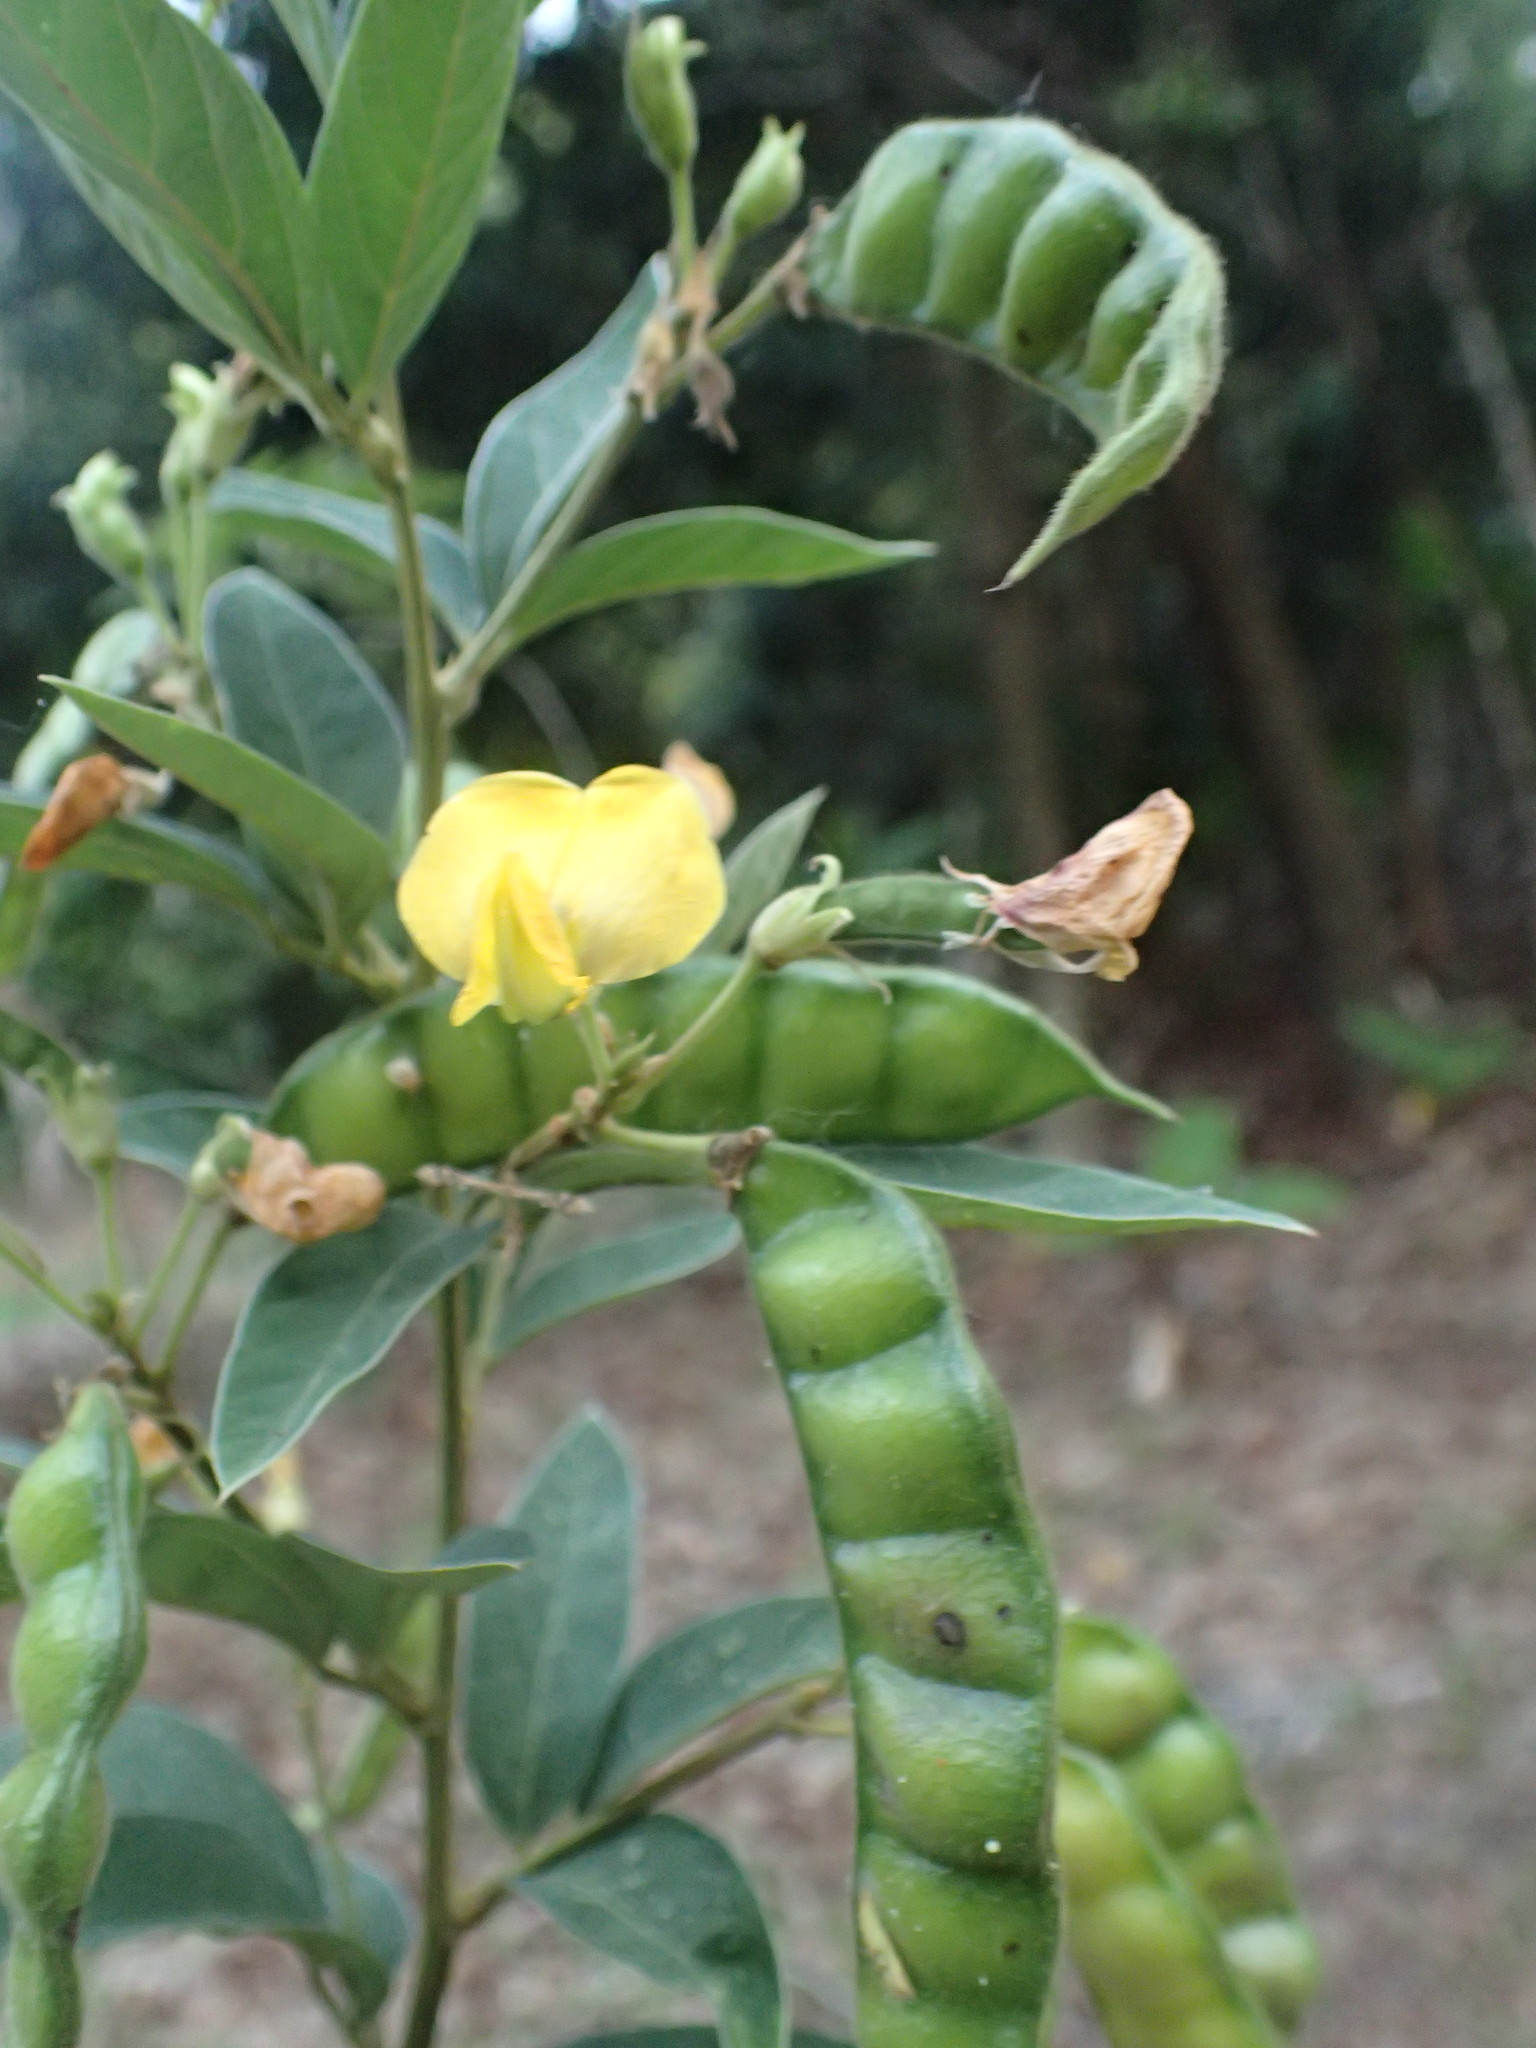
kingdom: Plantae
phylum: Tracheophyta
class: Magnoliopsida
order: Fabales
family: Fabaceae
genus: Cajanus
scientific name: Cajanus cajan
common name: Pigeonpea
